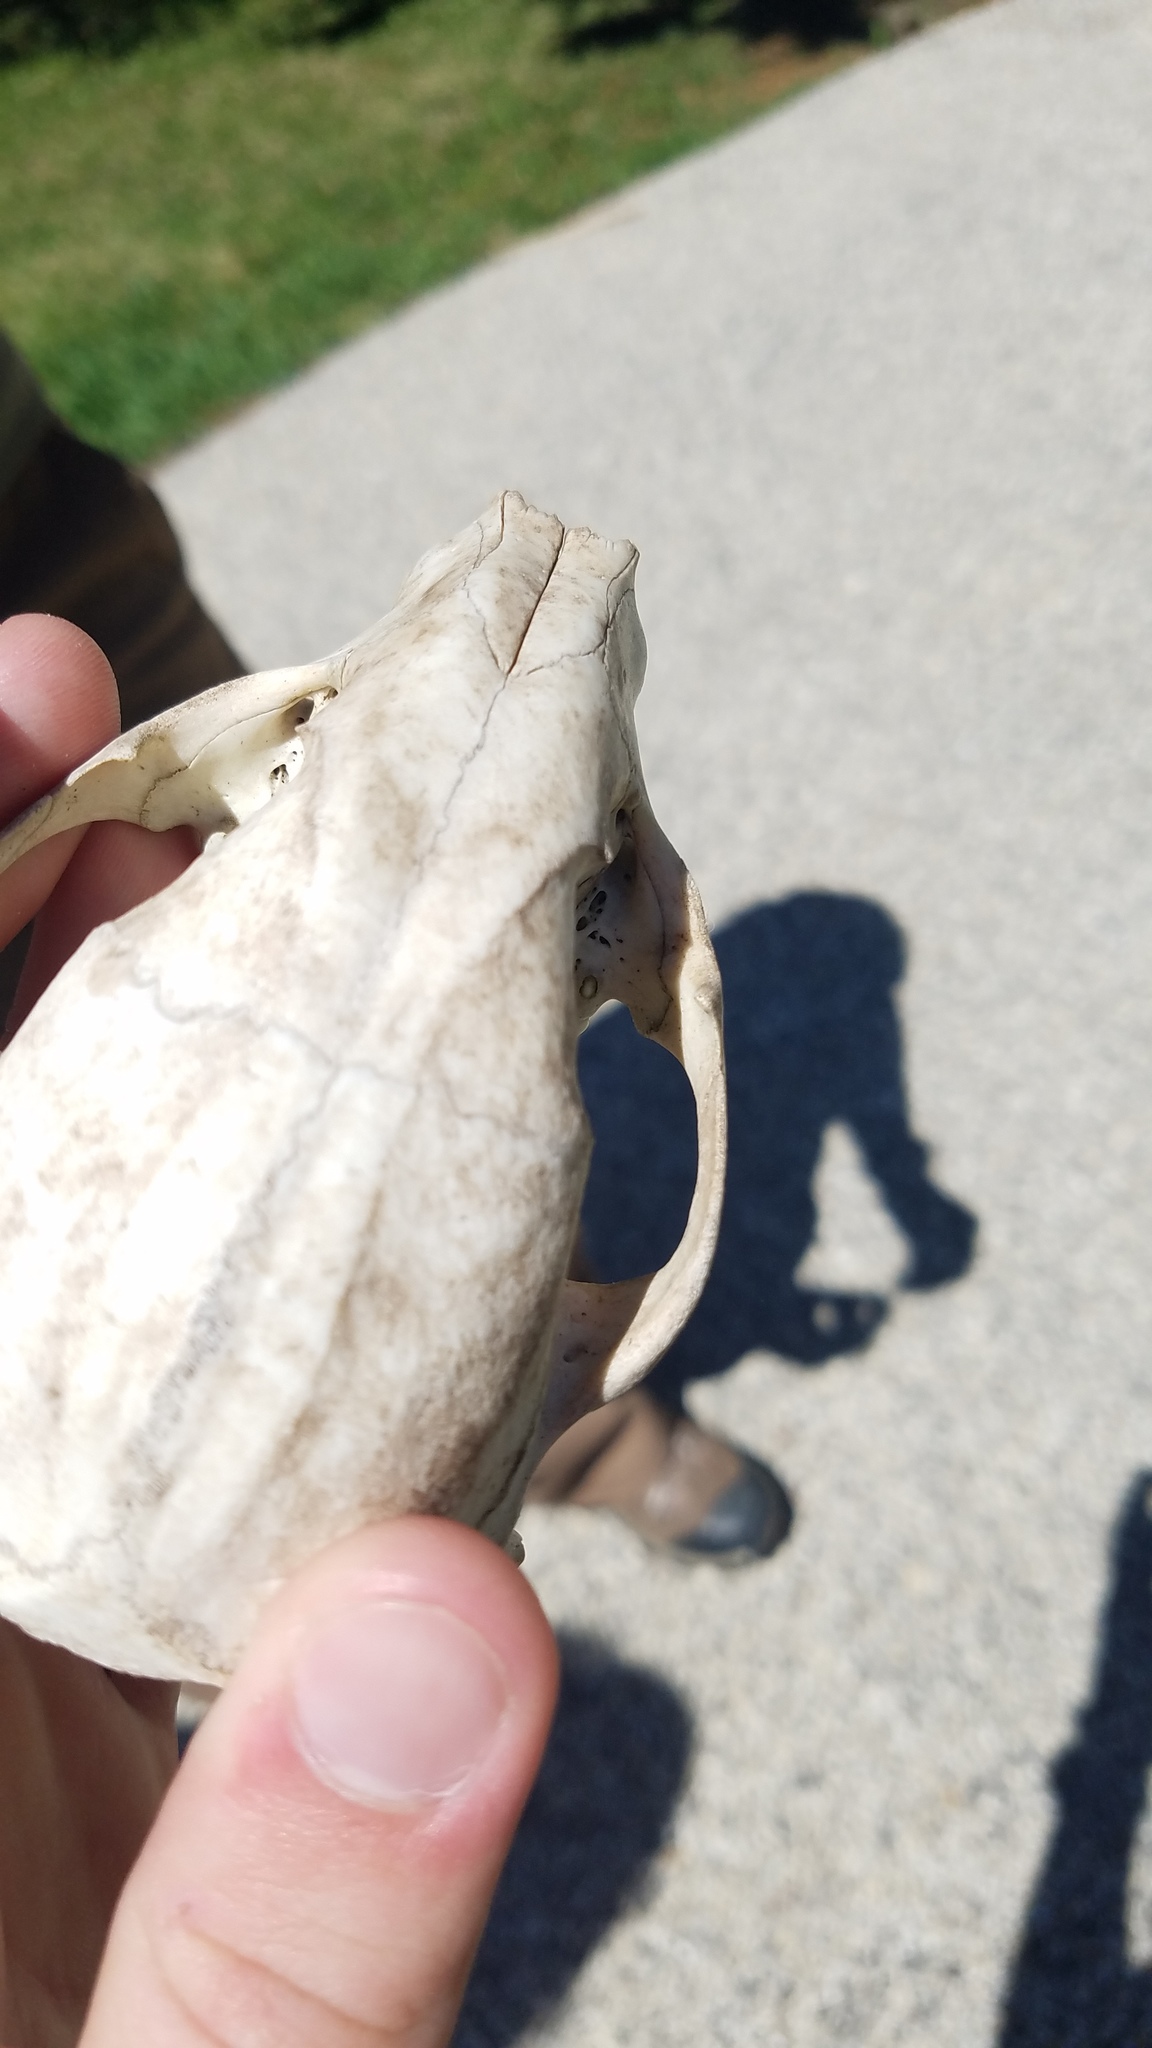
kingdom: Animalia
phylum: Chordata
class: Mammalia
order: Carnivora
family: Procyonidae
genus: Procyon
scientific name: Procyon lotor
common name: Raccoon
